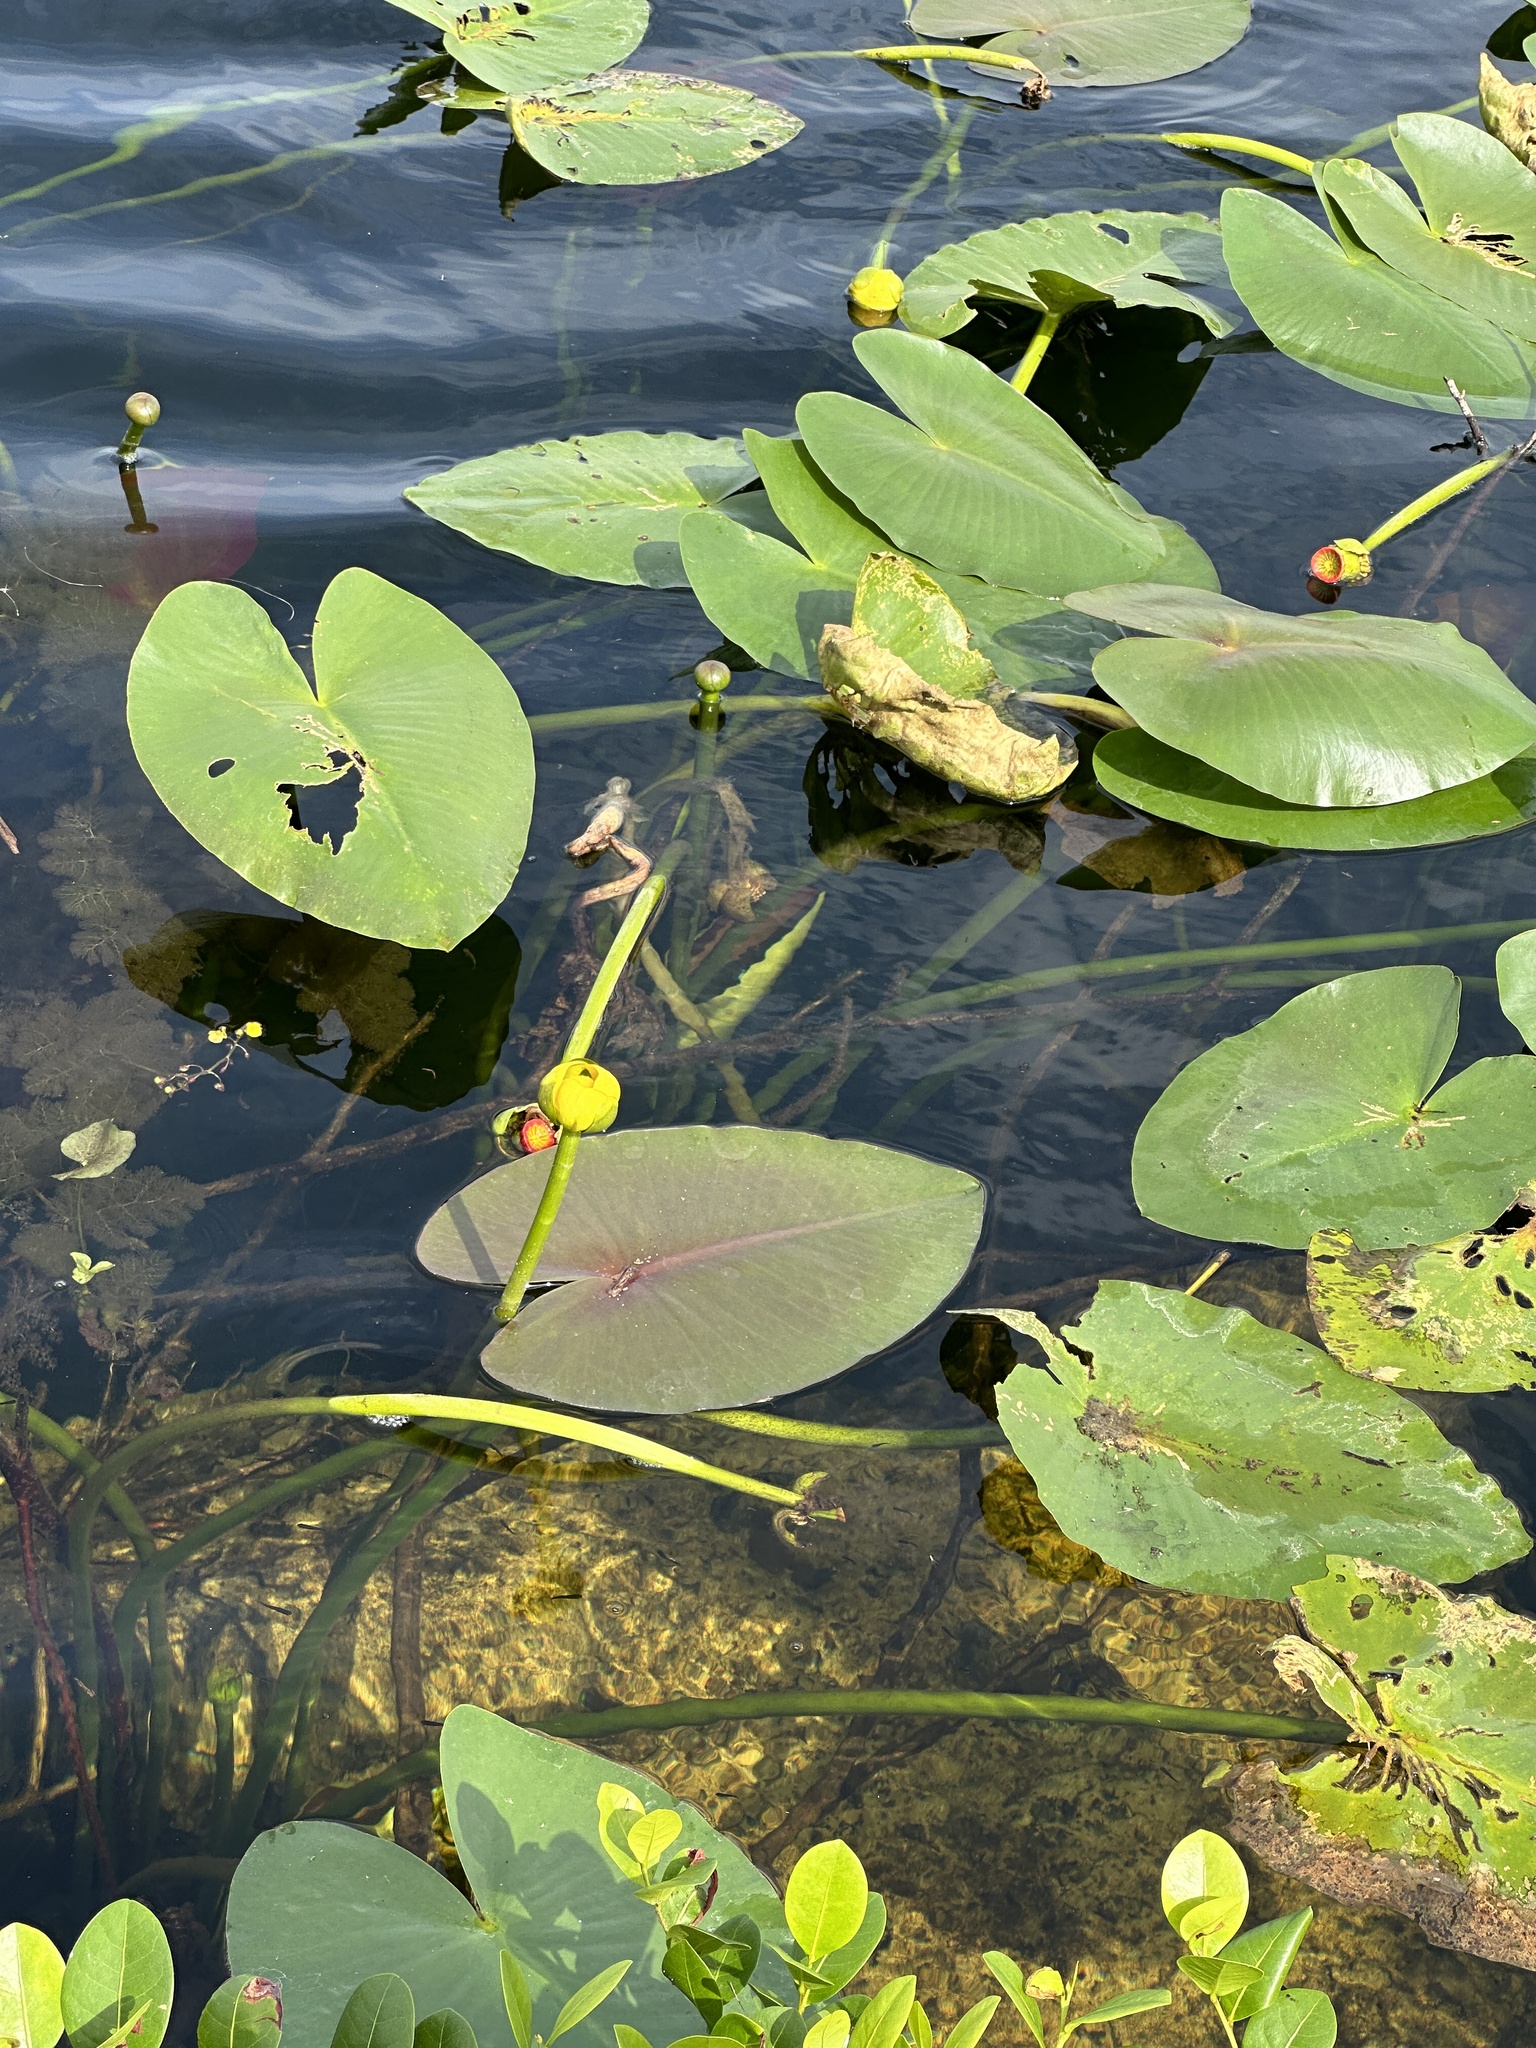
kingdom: Plantae
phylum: Tracheophyta
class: Magnoliopsida
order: Nymphaeales
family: Nymphaeaceae
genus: Nuphar
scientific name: Nuphar advena
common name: Spatter-dock
